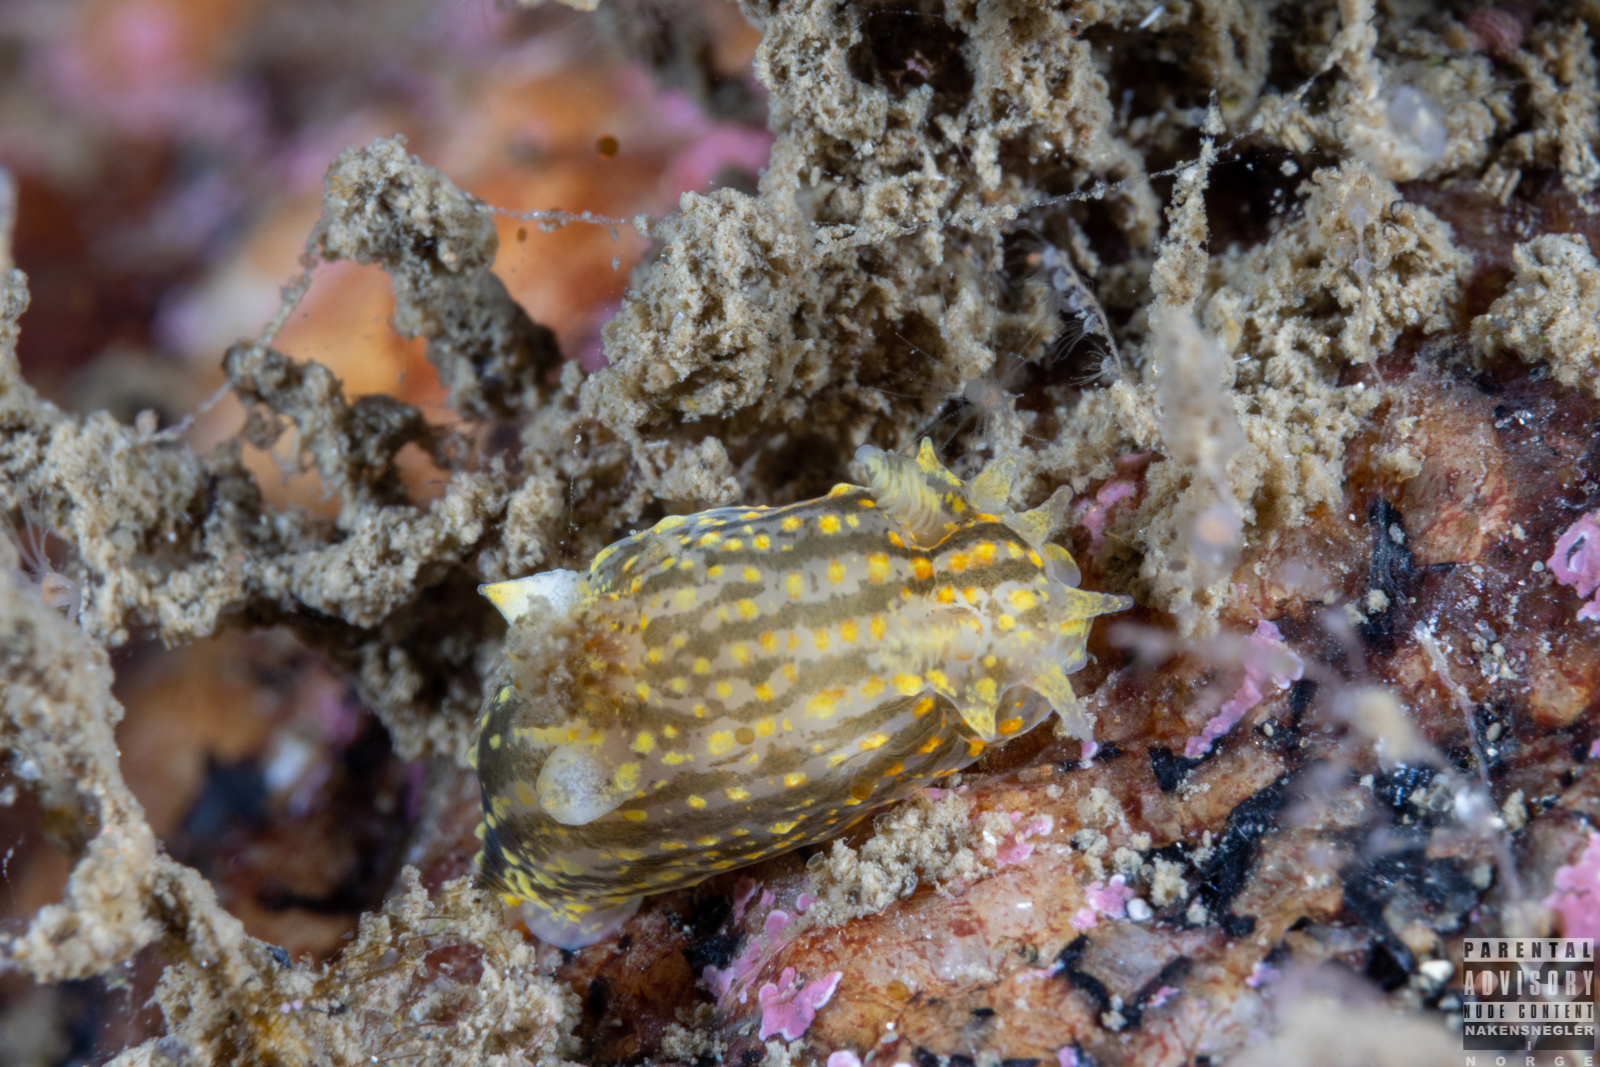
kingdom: Animalia
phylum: Mollusca
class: Gastropoda
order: Nudibranchia
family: Polyceridae
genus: Polycera
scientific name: Polycera quadrilineata
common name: Four-striped polycera
